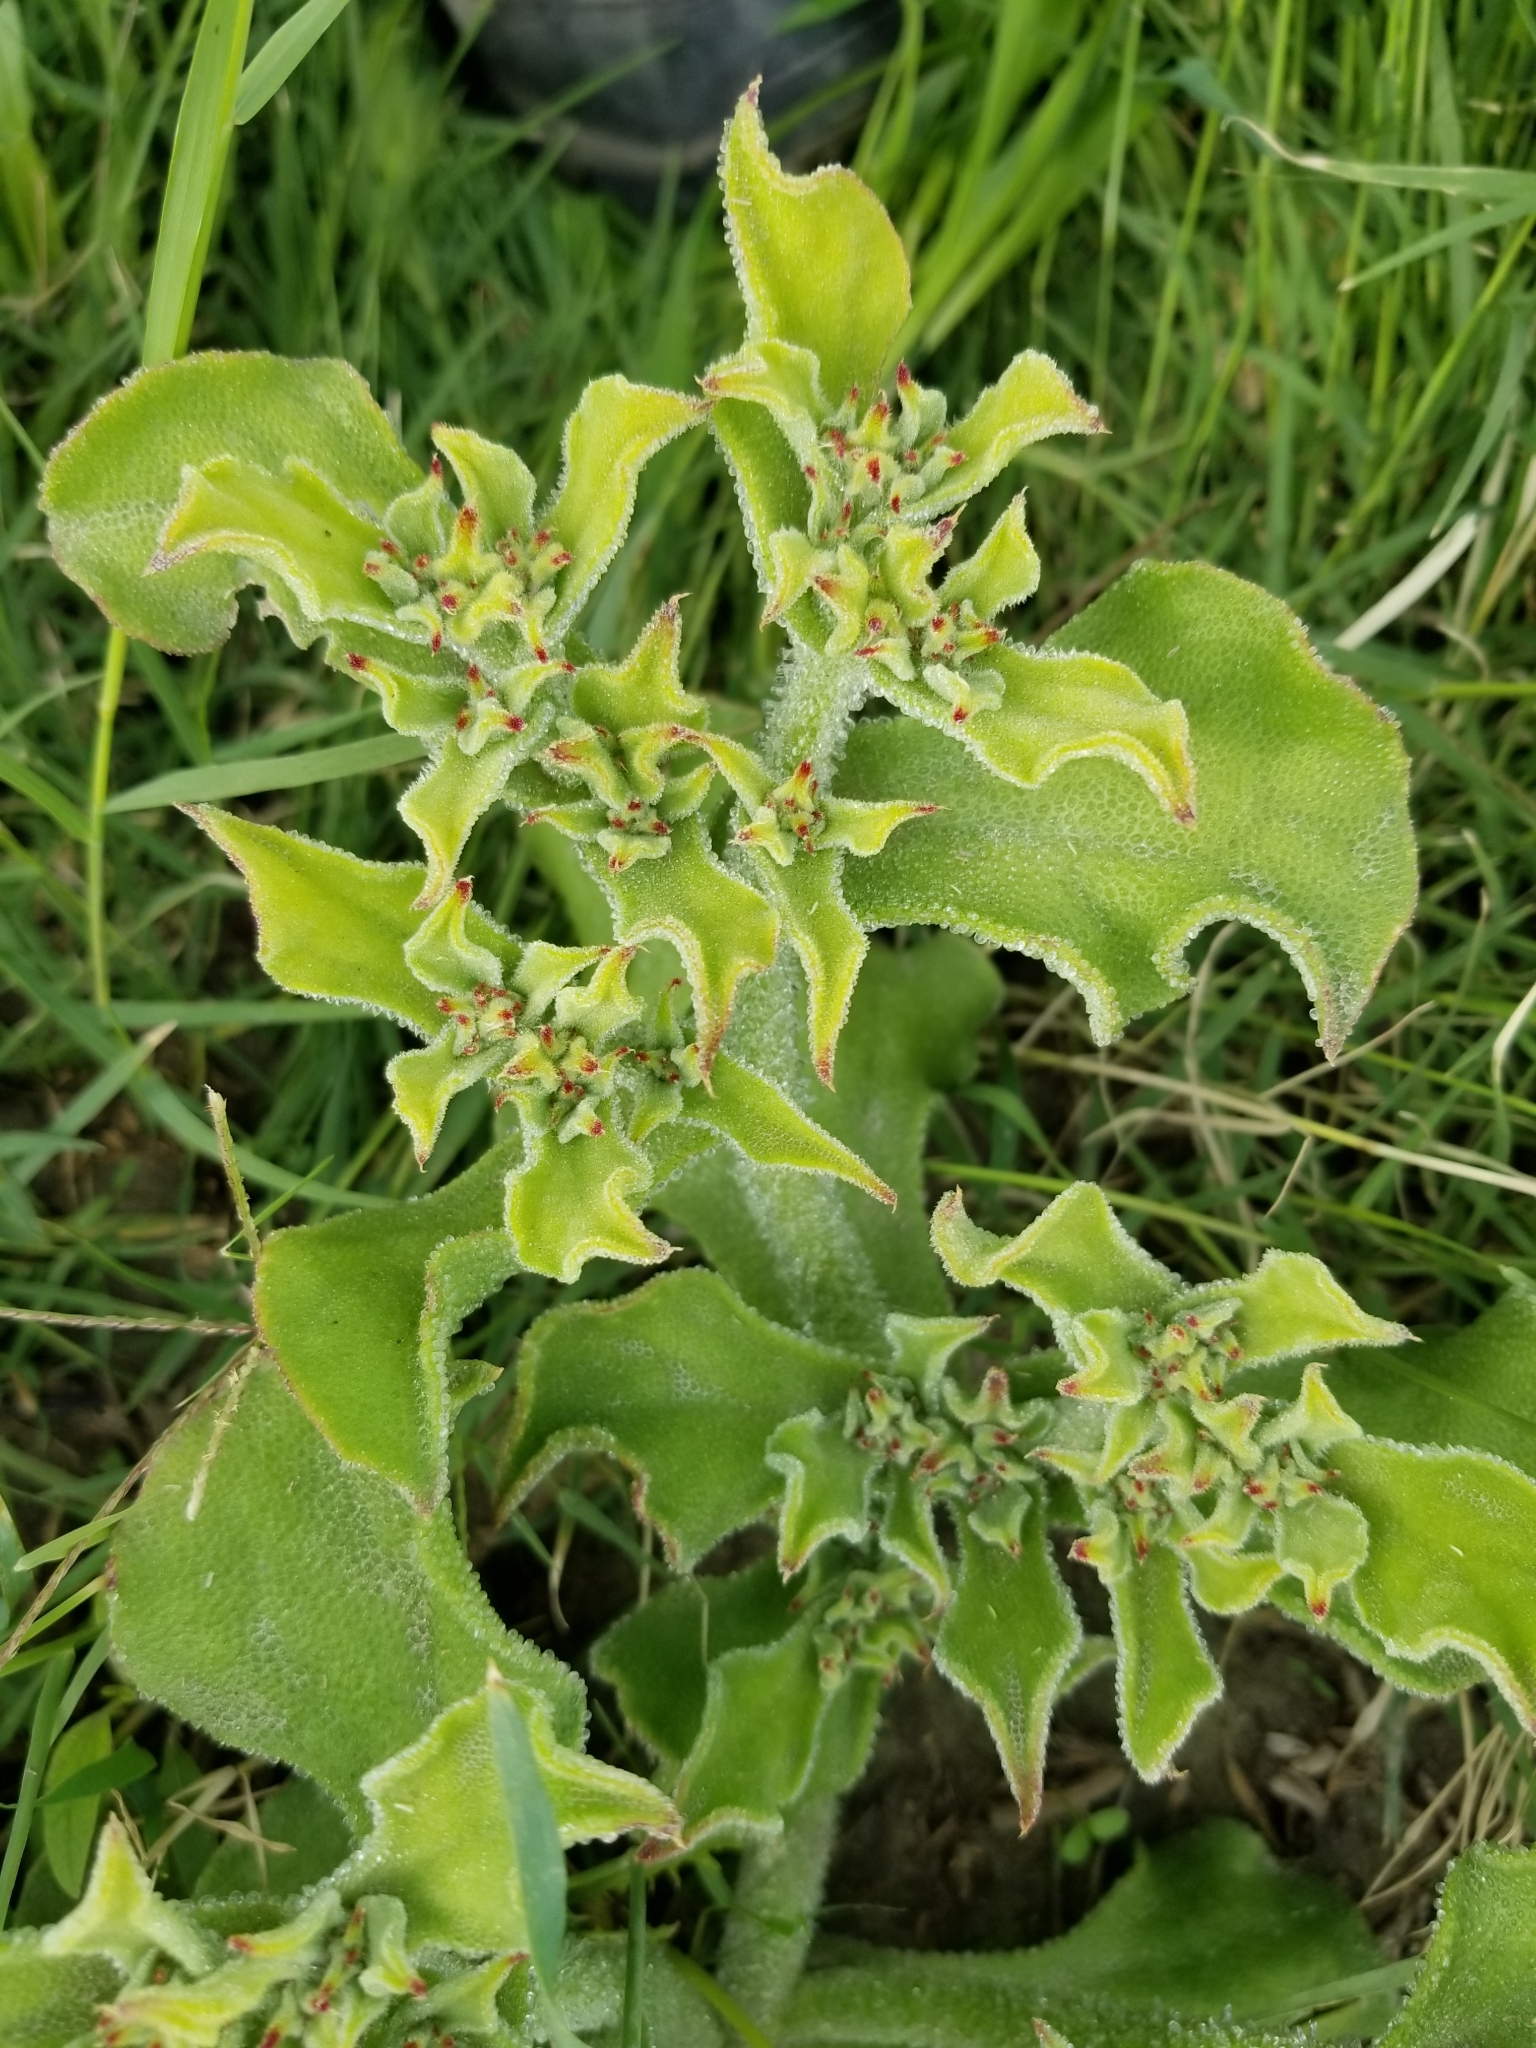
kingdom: Plantae
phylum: Tracheophyta
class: Magnoliopsida
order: Caryophyllales
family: Aizoaceae
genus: Mesembryanthemum
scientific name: Mesembryanthemum crystallinum
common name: Common iceplant
